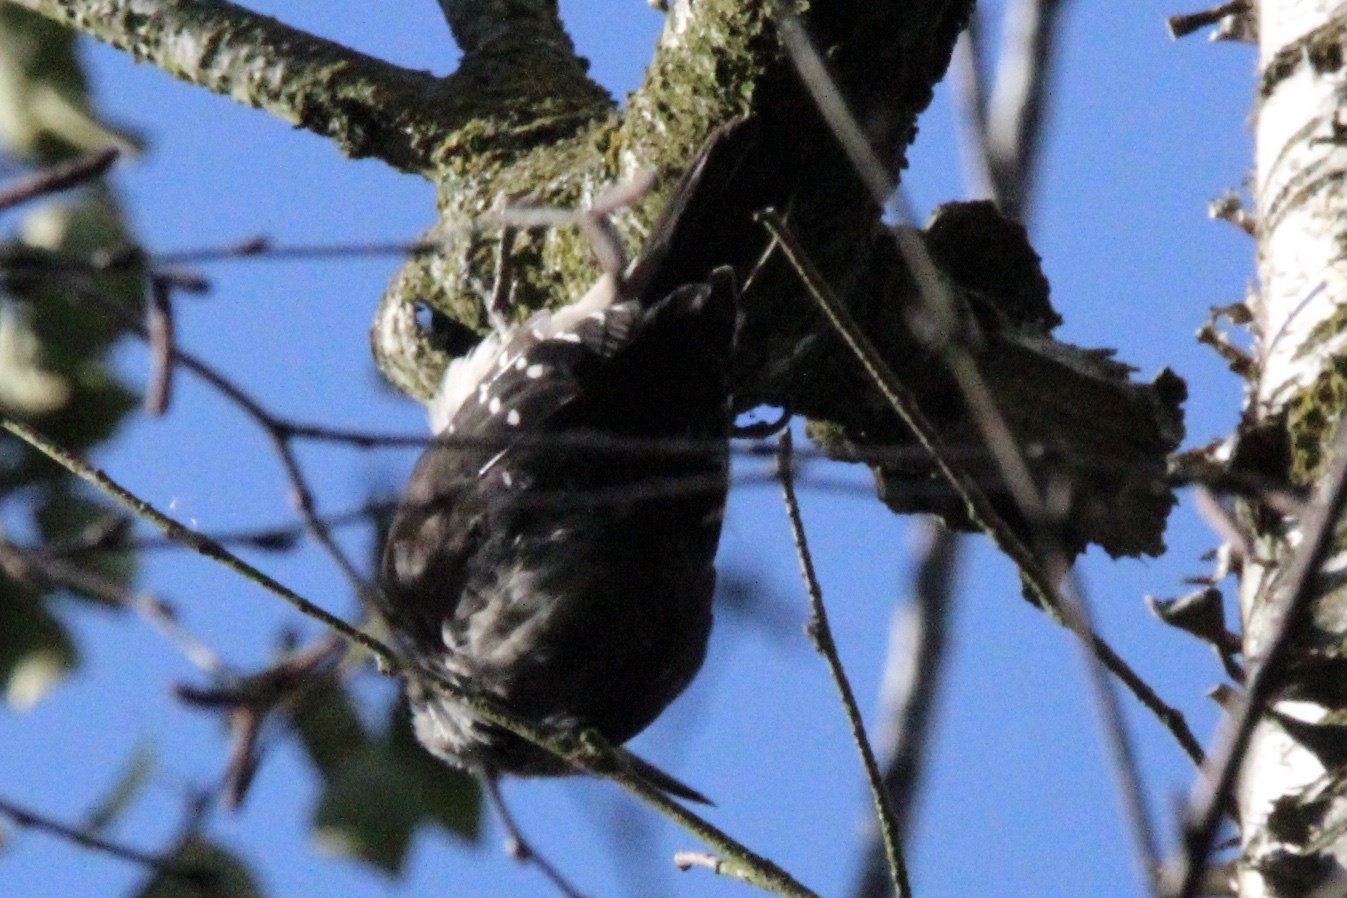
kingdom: Animalia
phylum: Chordata
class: Aves
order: Piciformes
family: Picidae
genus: Leuconotopicus
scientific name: Leuconotopicus villosus
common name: Hairy woodpecker
